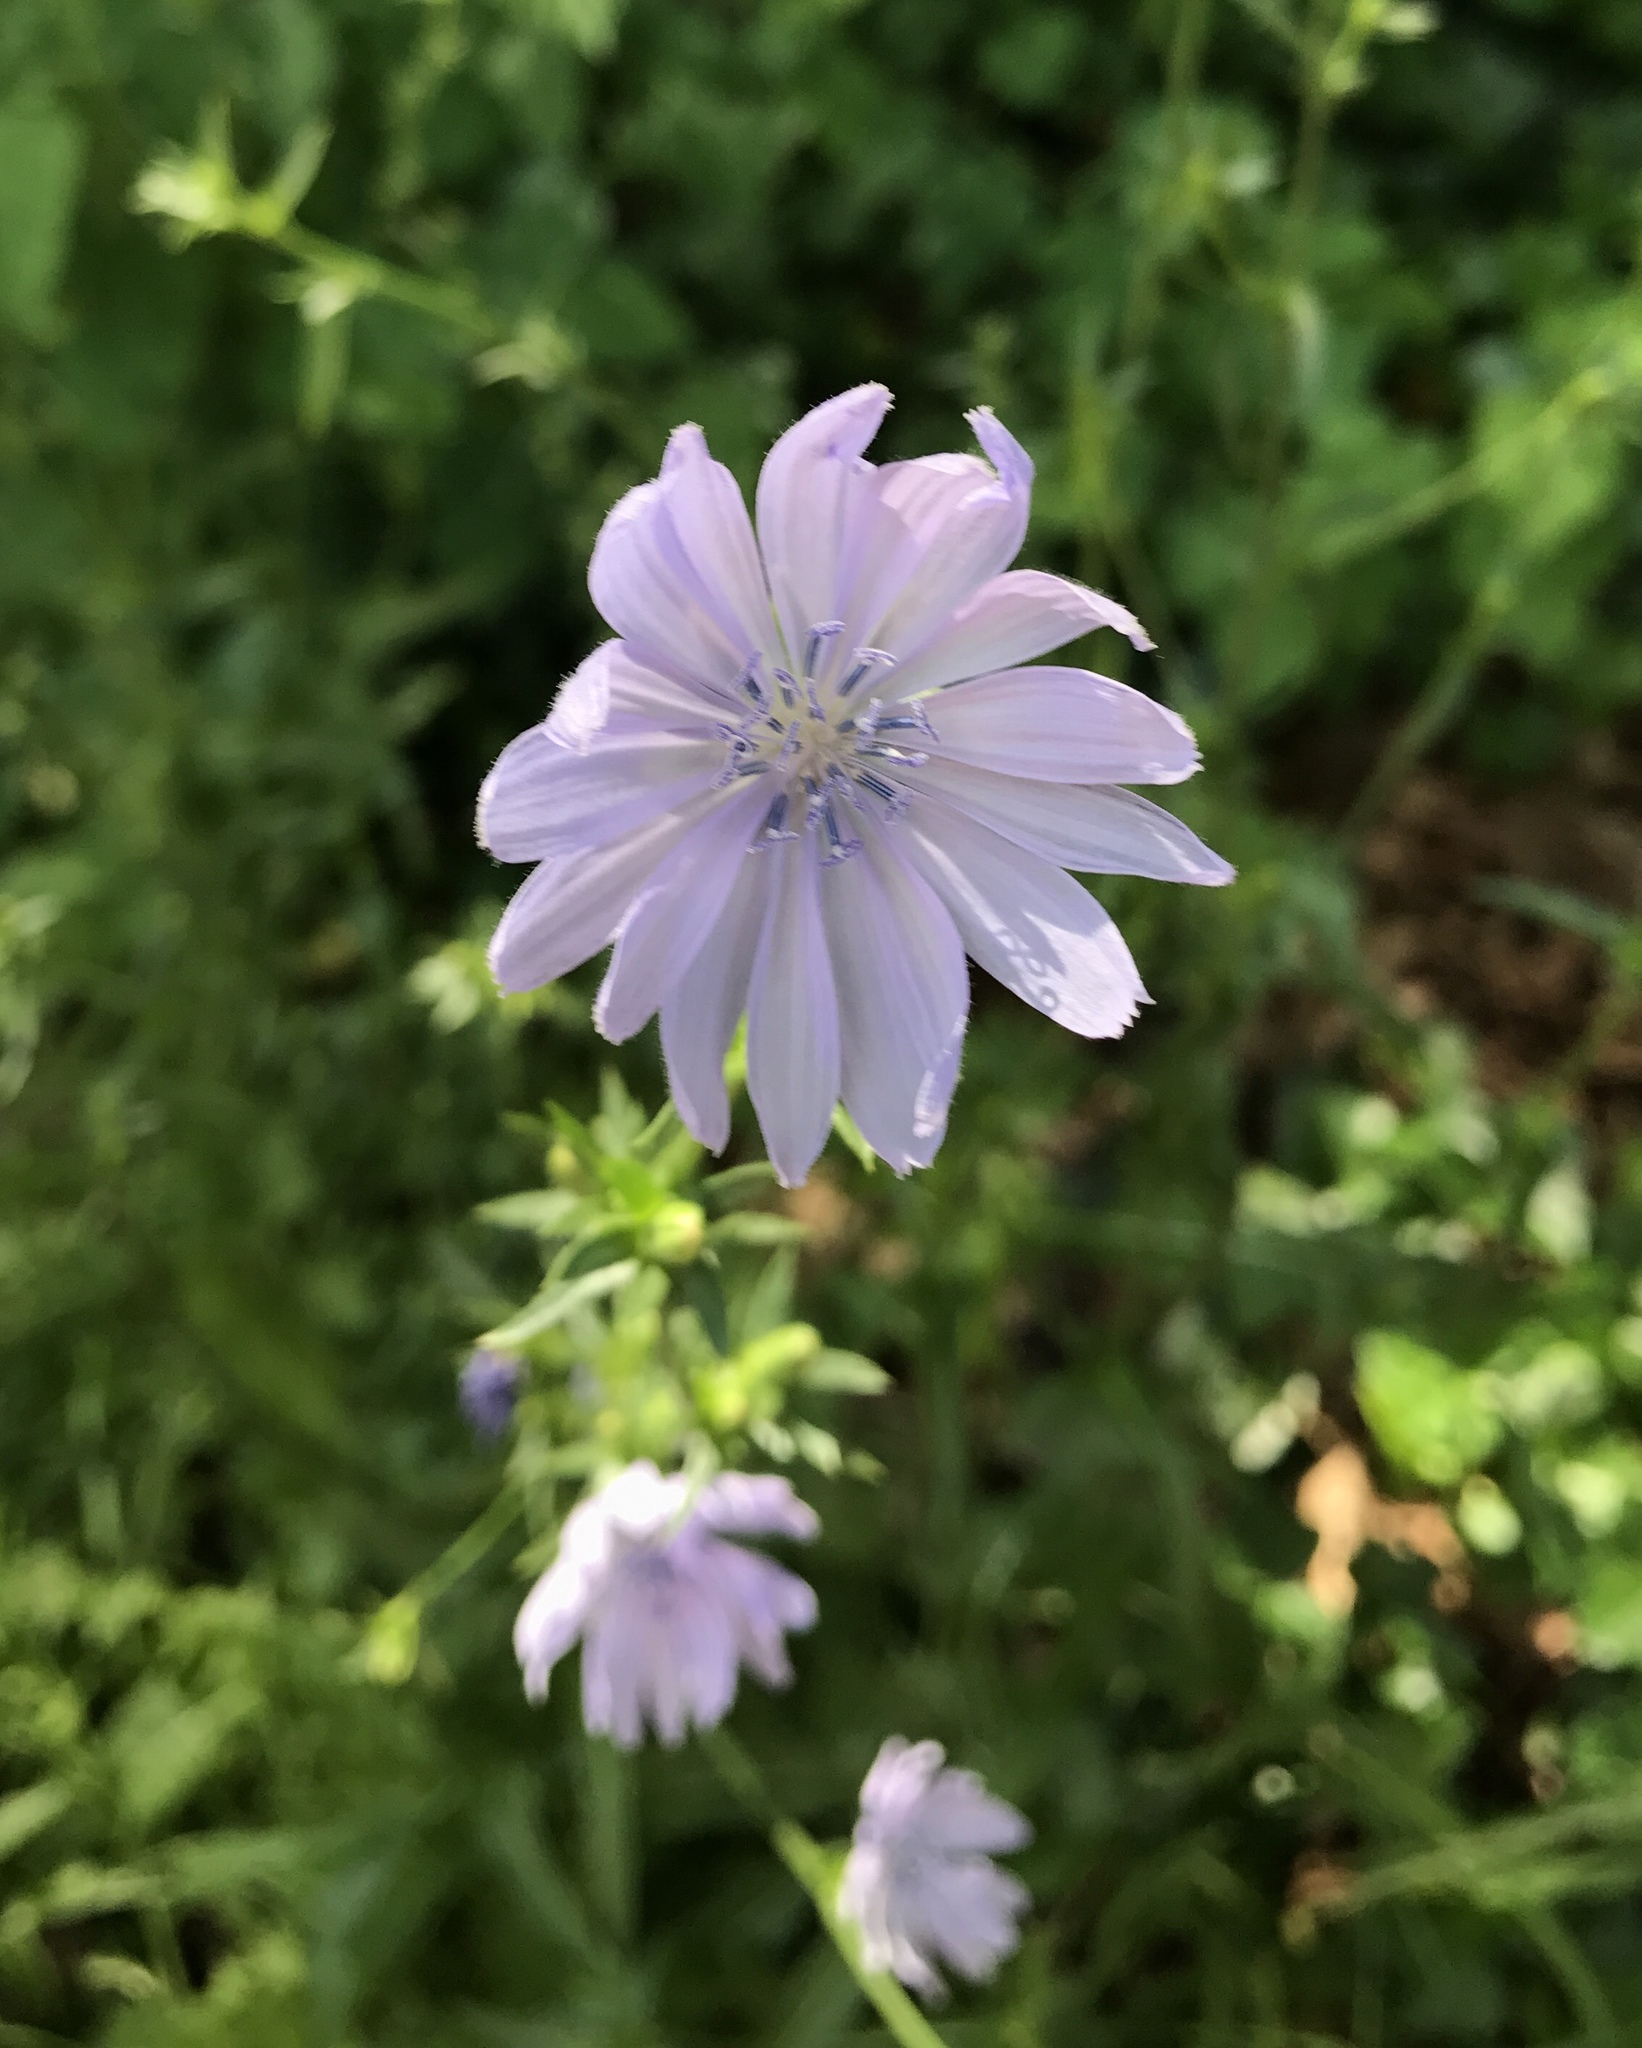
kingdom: Plantae
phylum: Tracheophyta
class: Magnoliopsida
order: Asterales
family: Asteraceae
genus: Cichorium
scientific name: Cichorium intybus
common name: Chicory
